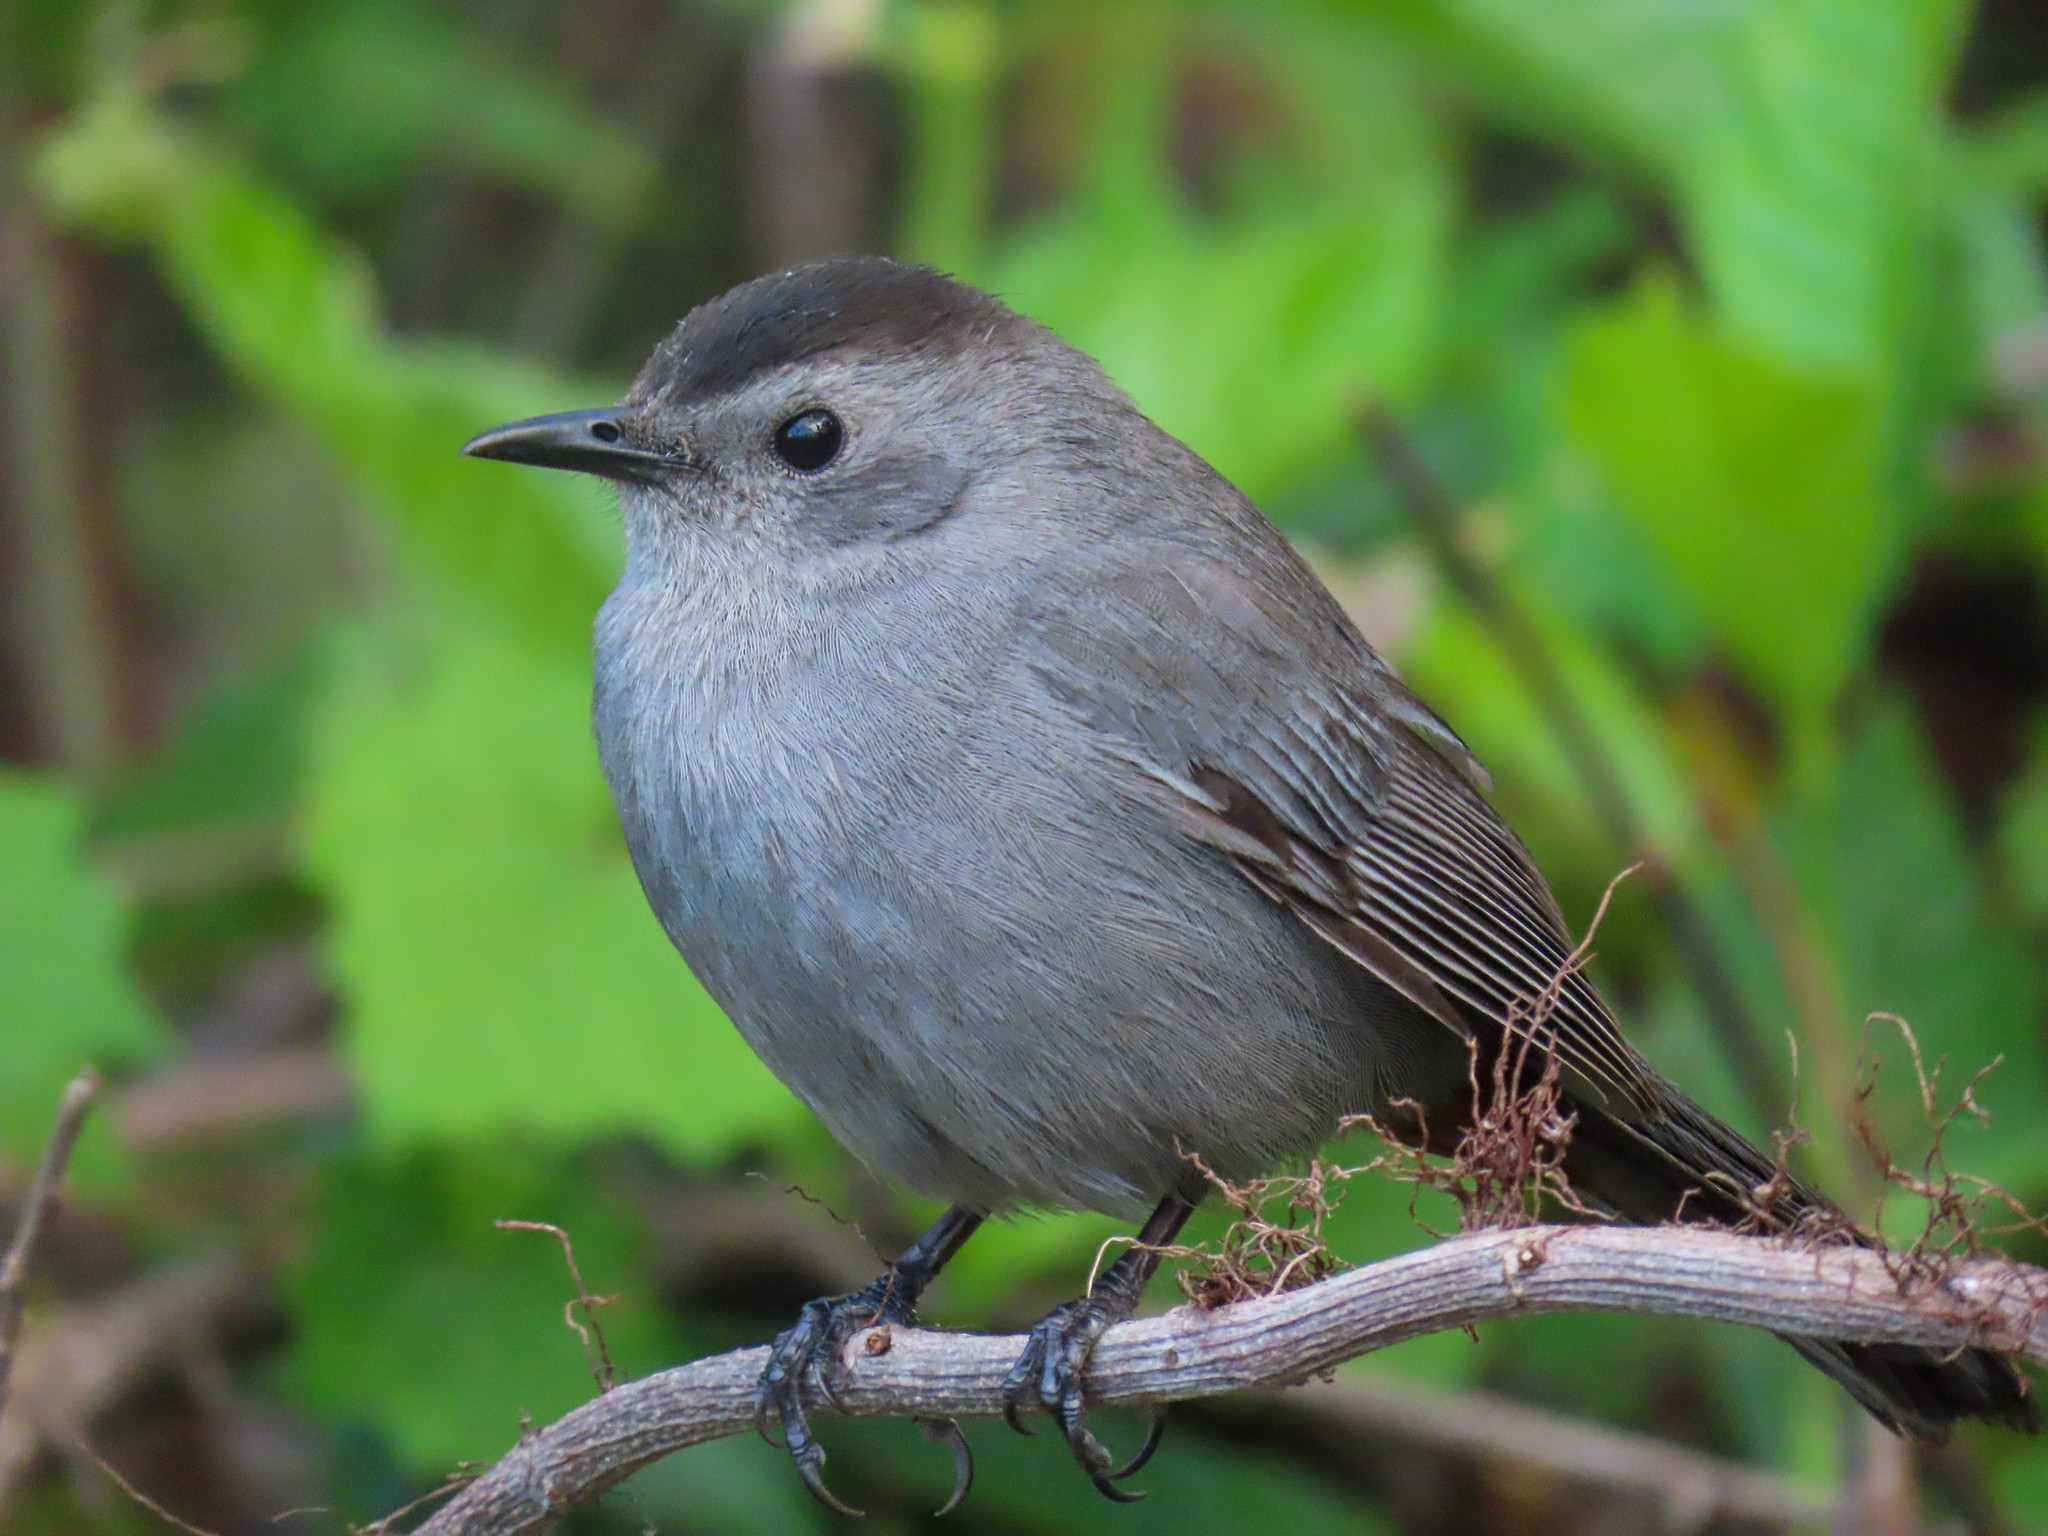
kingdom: Animalia
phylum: Chordata
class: Aves
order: Passeriformes
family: Mimidae
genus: Dumetella
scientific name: Dumetella carolinensis
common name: Gray catbird
